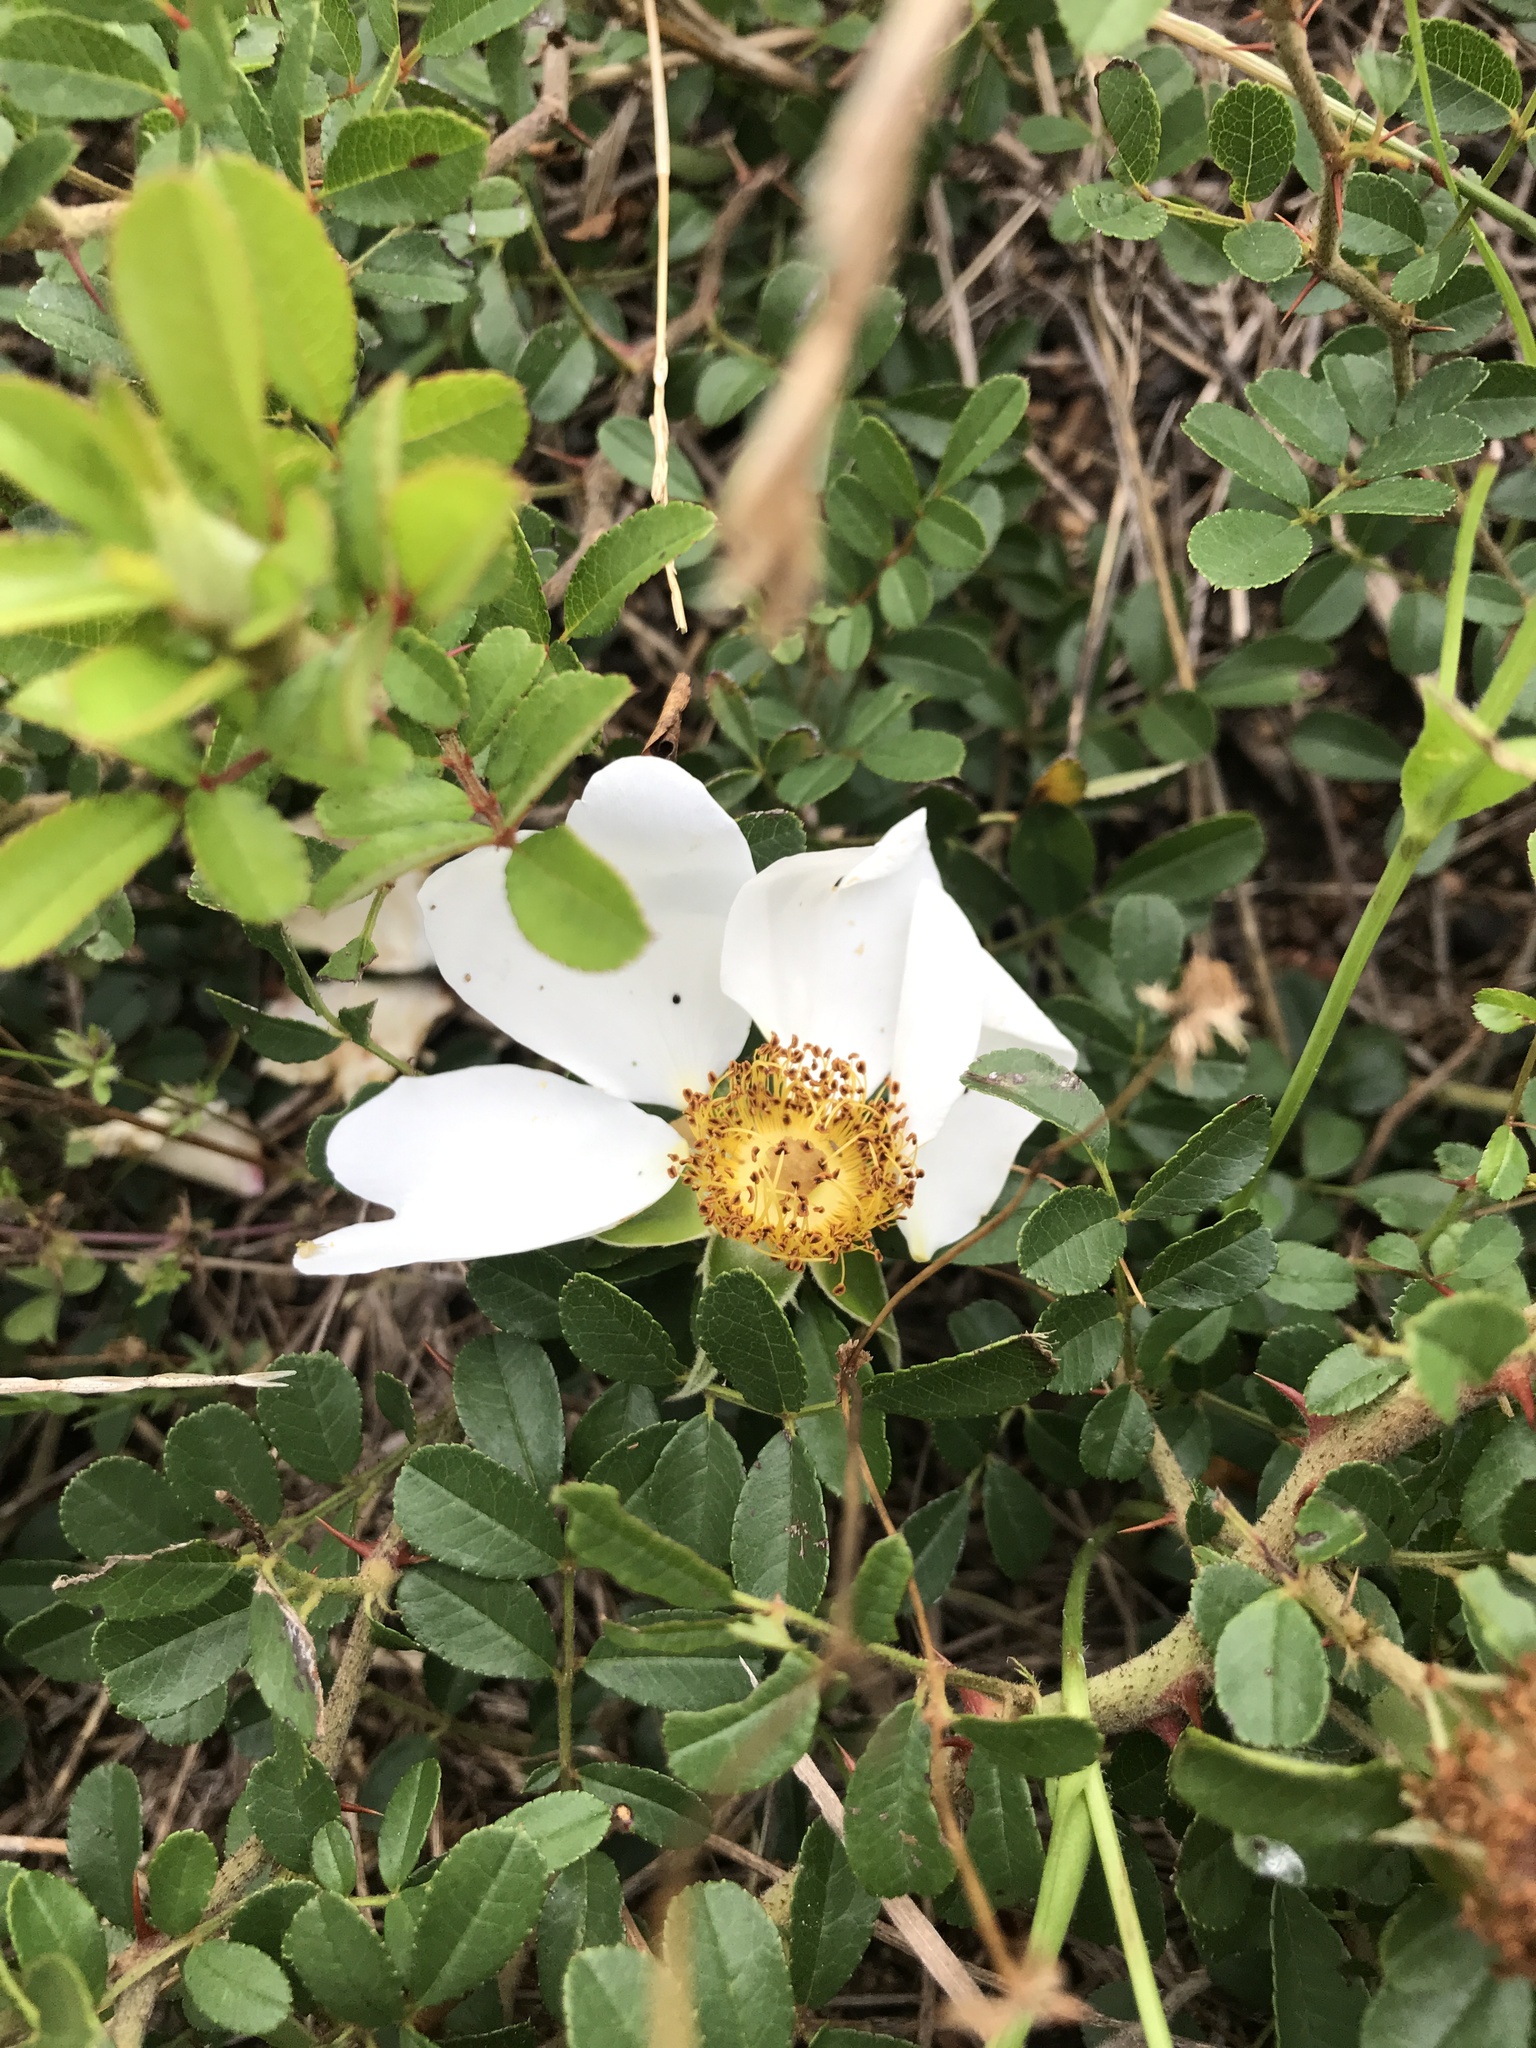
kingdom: Plantae
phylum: Tracheophyta
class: Magnoliopsida
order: Rosales
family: Rosaceae
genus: Rosa
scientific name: Rosa bracteata
